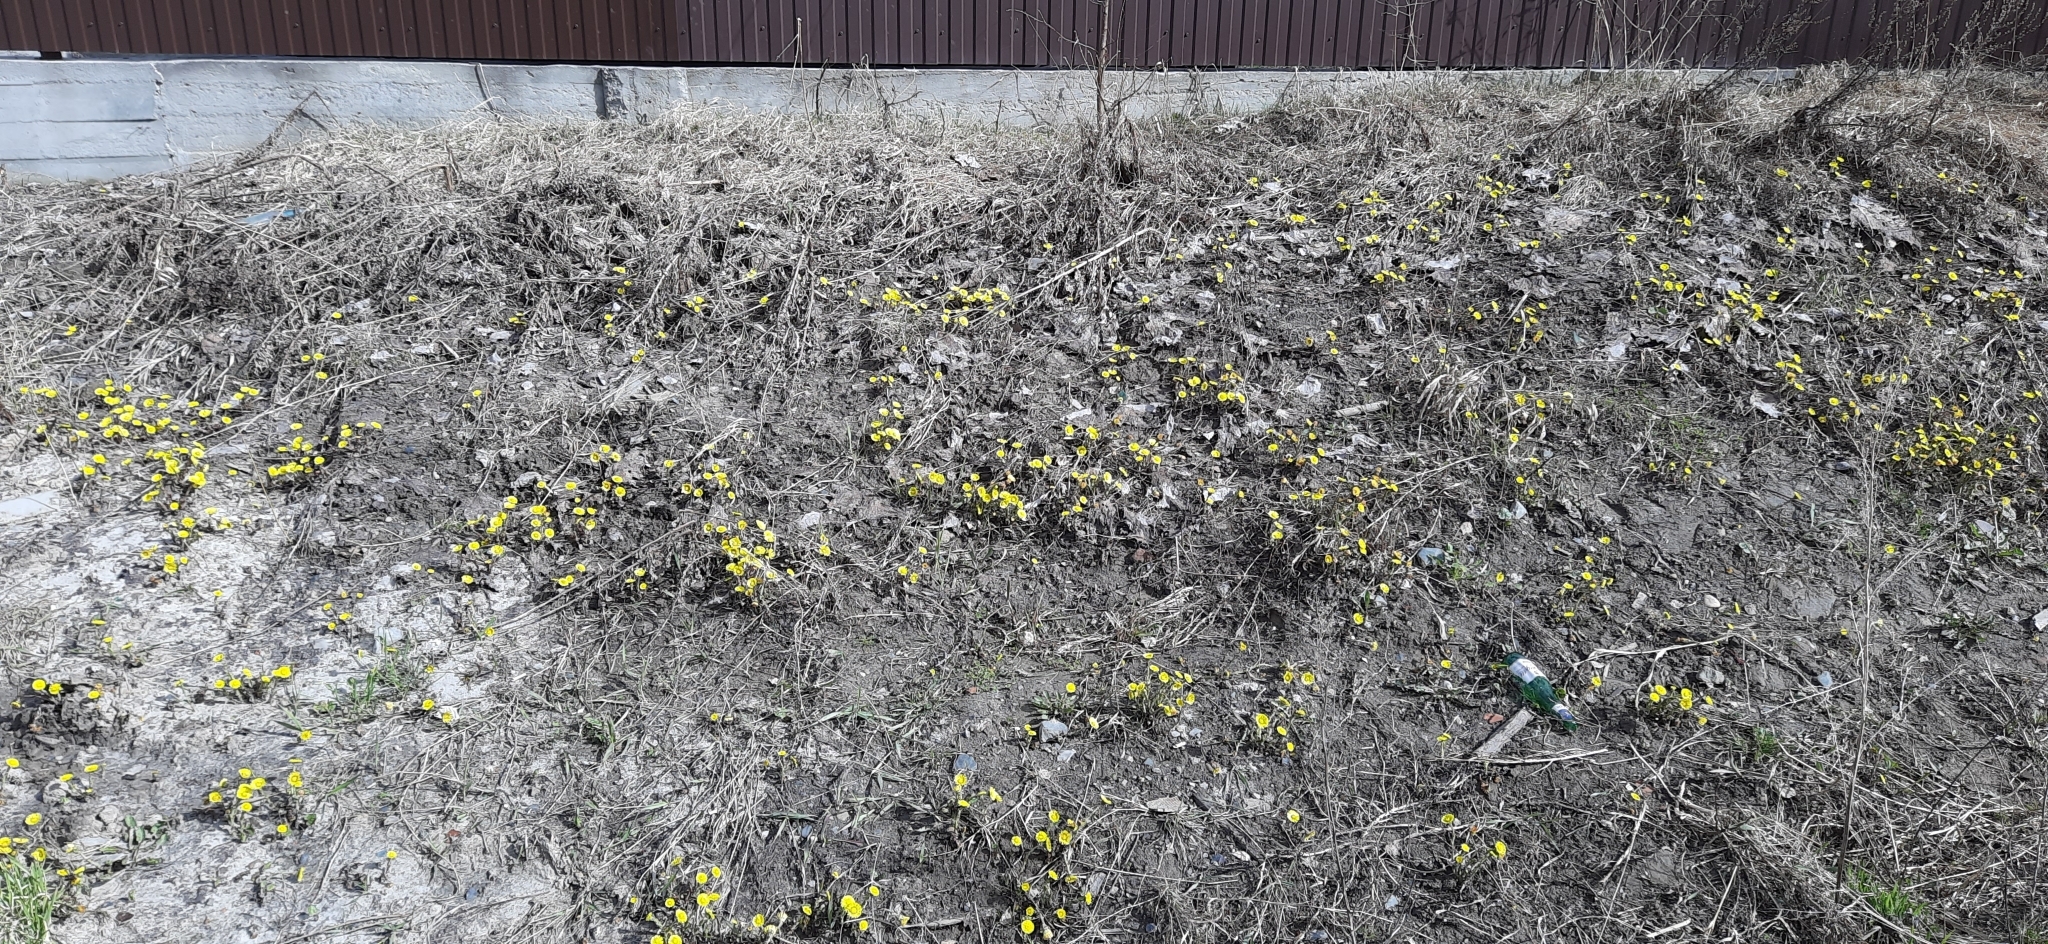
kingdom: Plantae
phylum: Tracheophyta
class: Magnoliopsida
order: Asterales
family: Asteraceae
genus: Tussilago
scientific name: Tussilago farfara
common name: Coltsfoot
